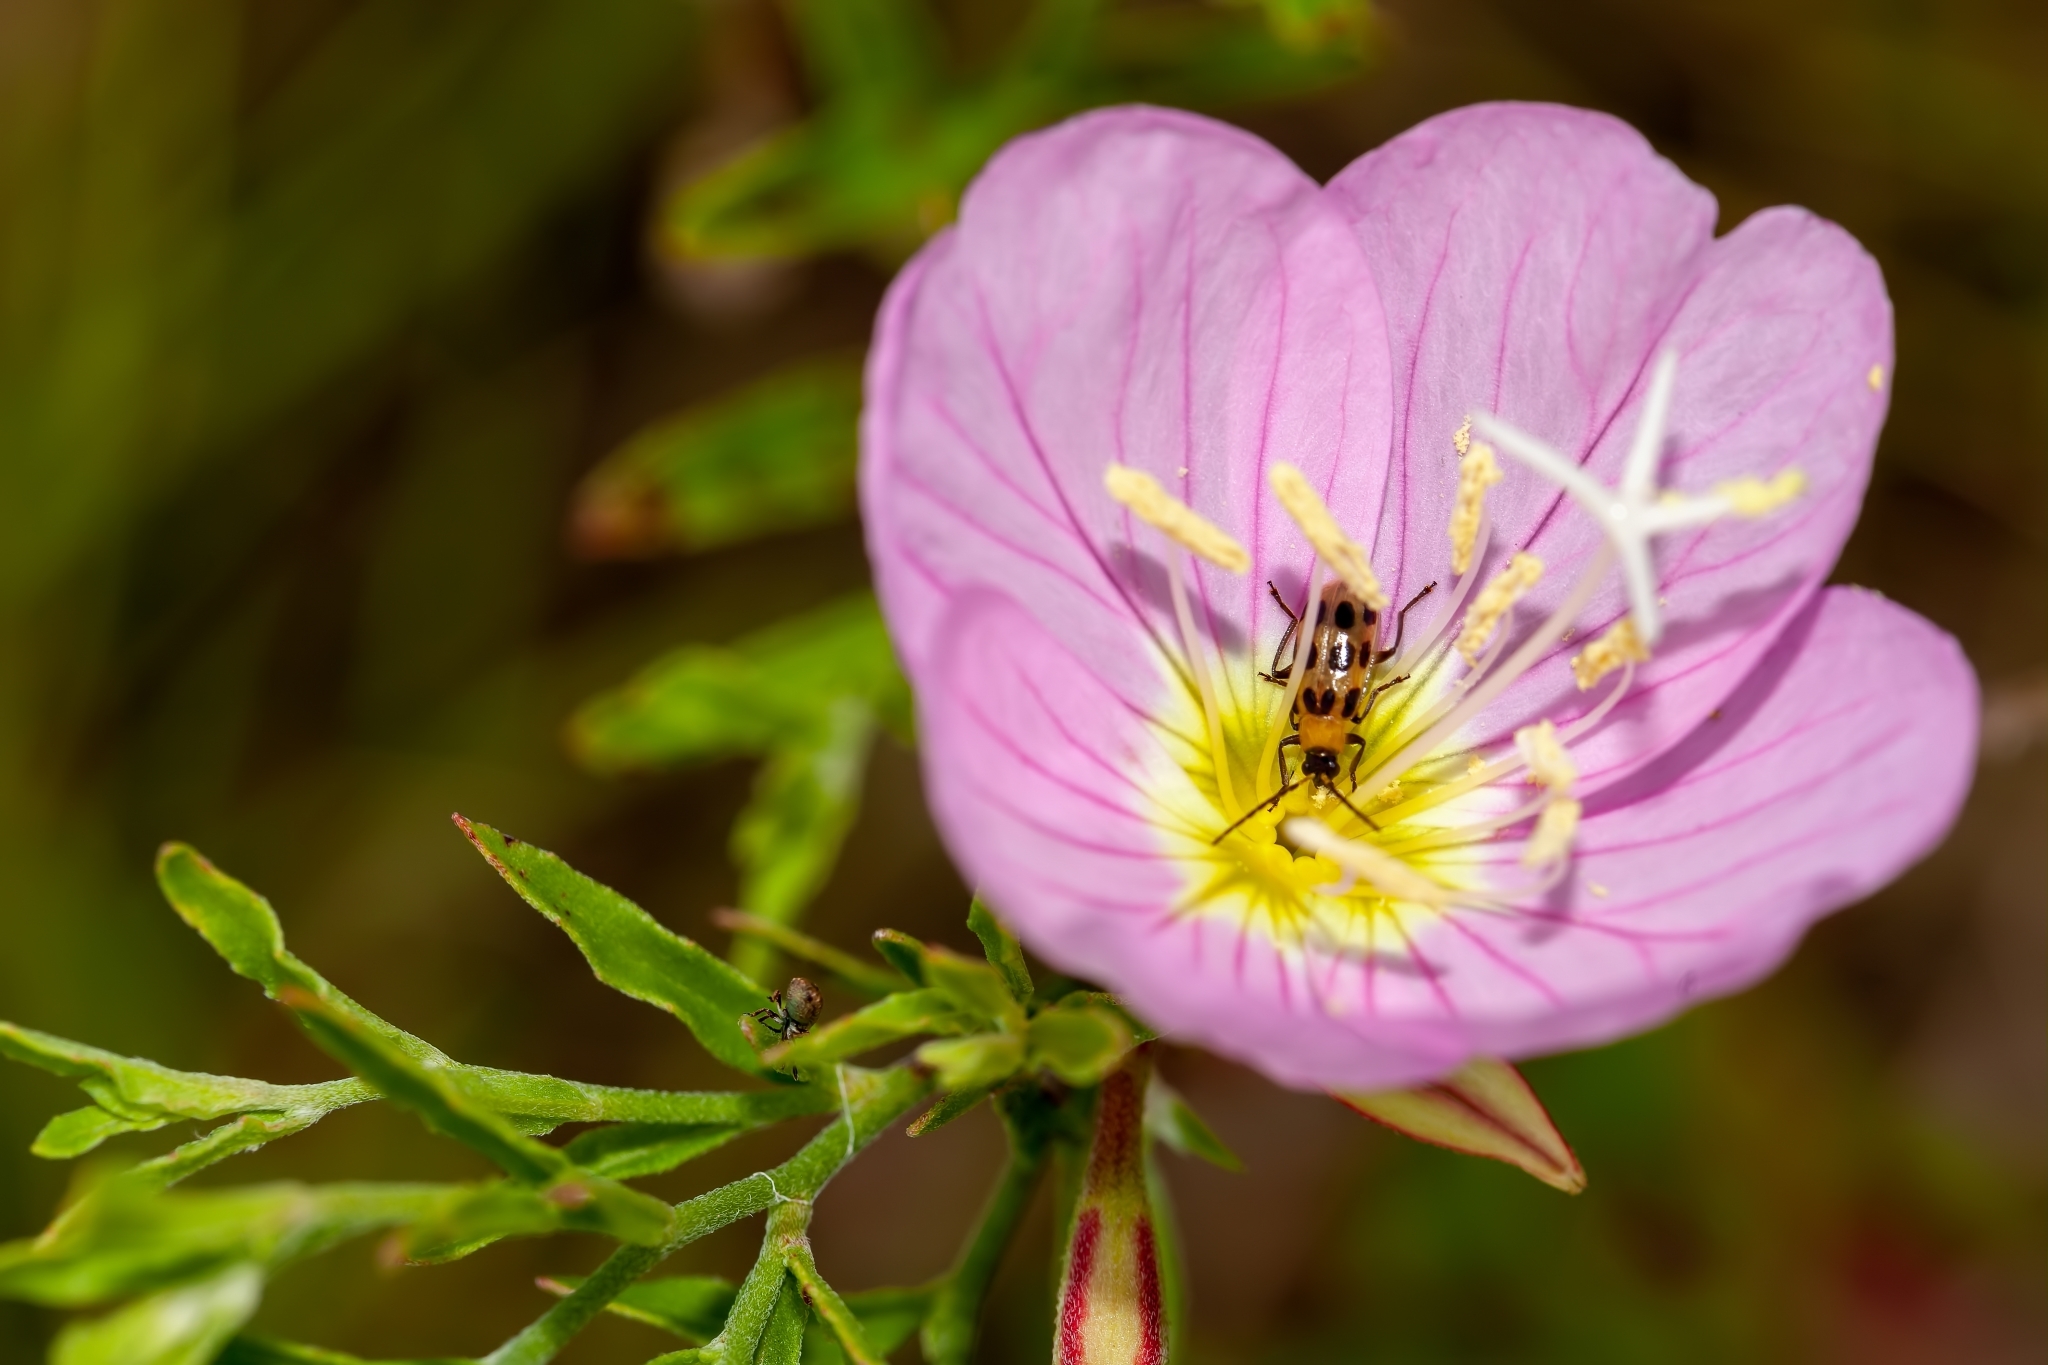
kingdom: Animalia
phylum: Arthropoda
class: Insecta
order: Coleoptera
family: Chrysomelidae
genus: Diabrotica
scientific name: Diabrotica undecimpunctata
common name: Spotted cucumber beetle
